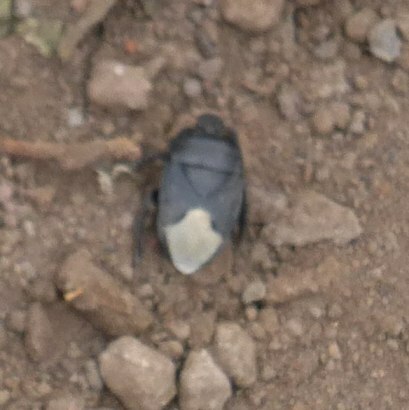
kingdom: Animalia
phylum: Arthropoda
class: Insecta
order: Hemiptera
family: Cydnidae
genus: Cydnus
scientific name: Cydnus aterrimus
